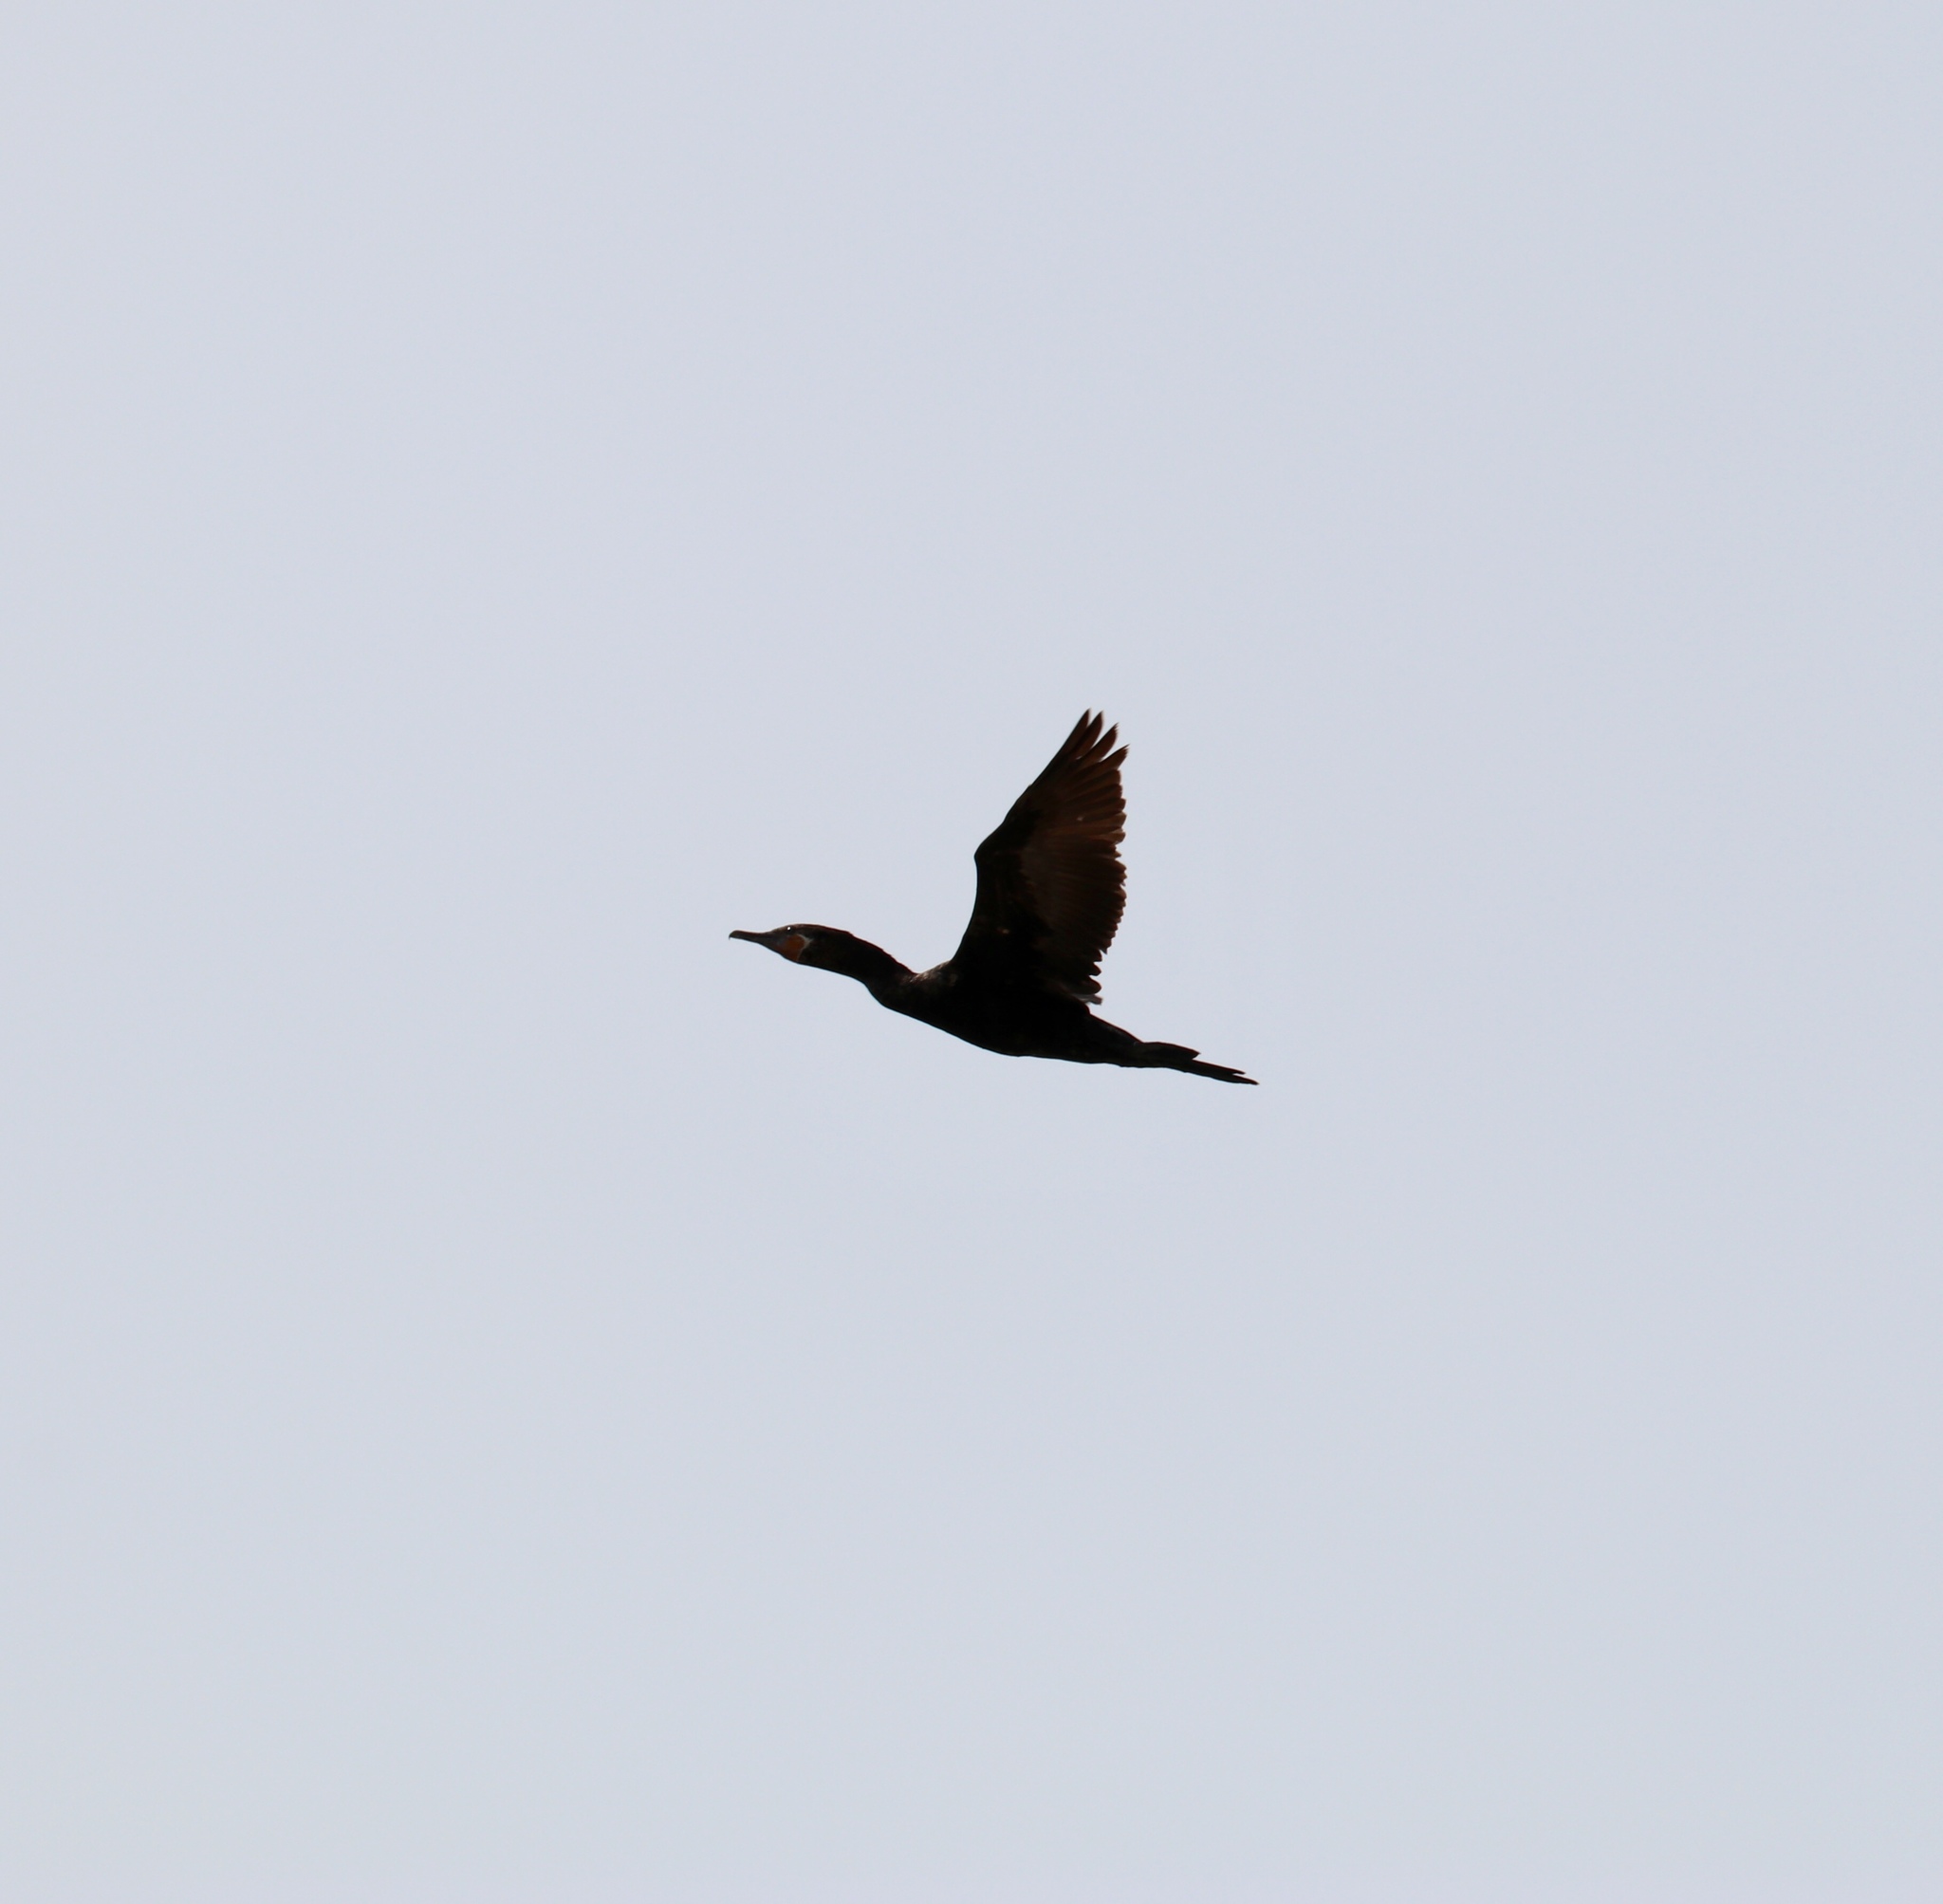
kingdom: Animalia
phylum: Chordata
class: Aves
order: Suliformes
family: Phalacrocoracidae
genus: Phalacrocorax
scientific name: Phalacrocorax brasilianus
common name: Neotropic cormorant
